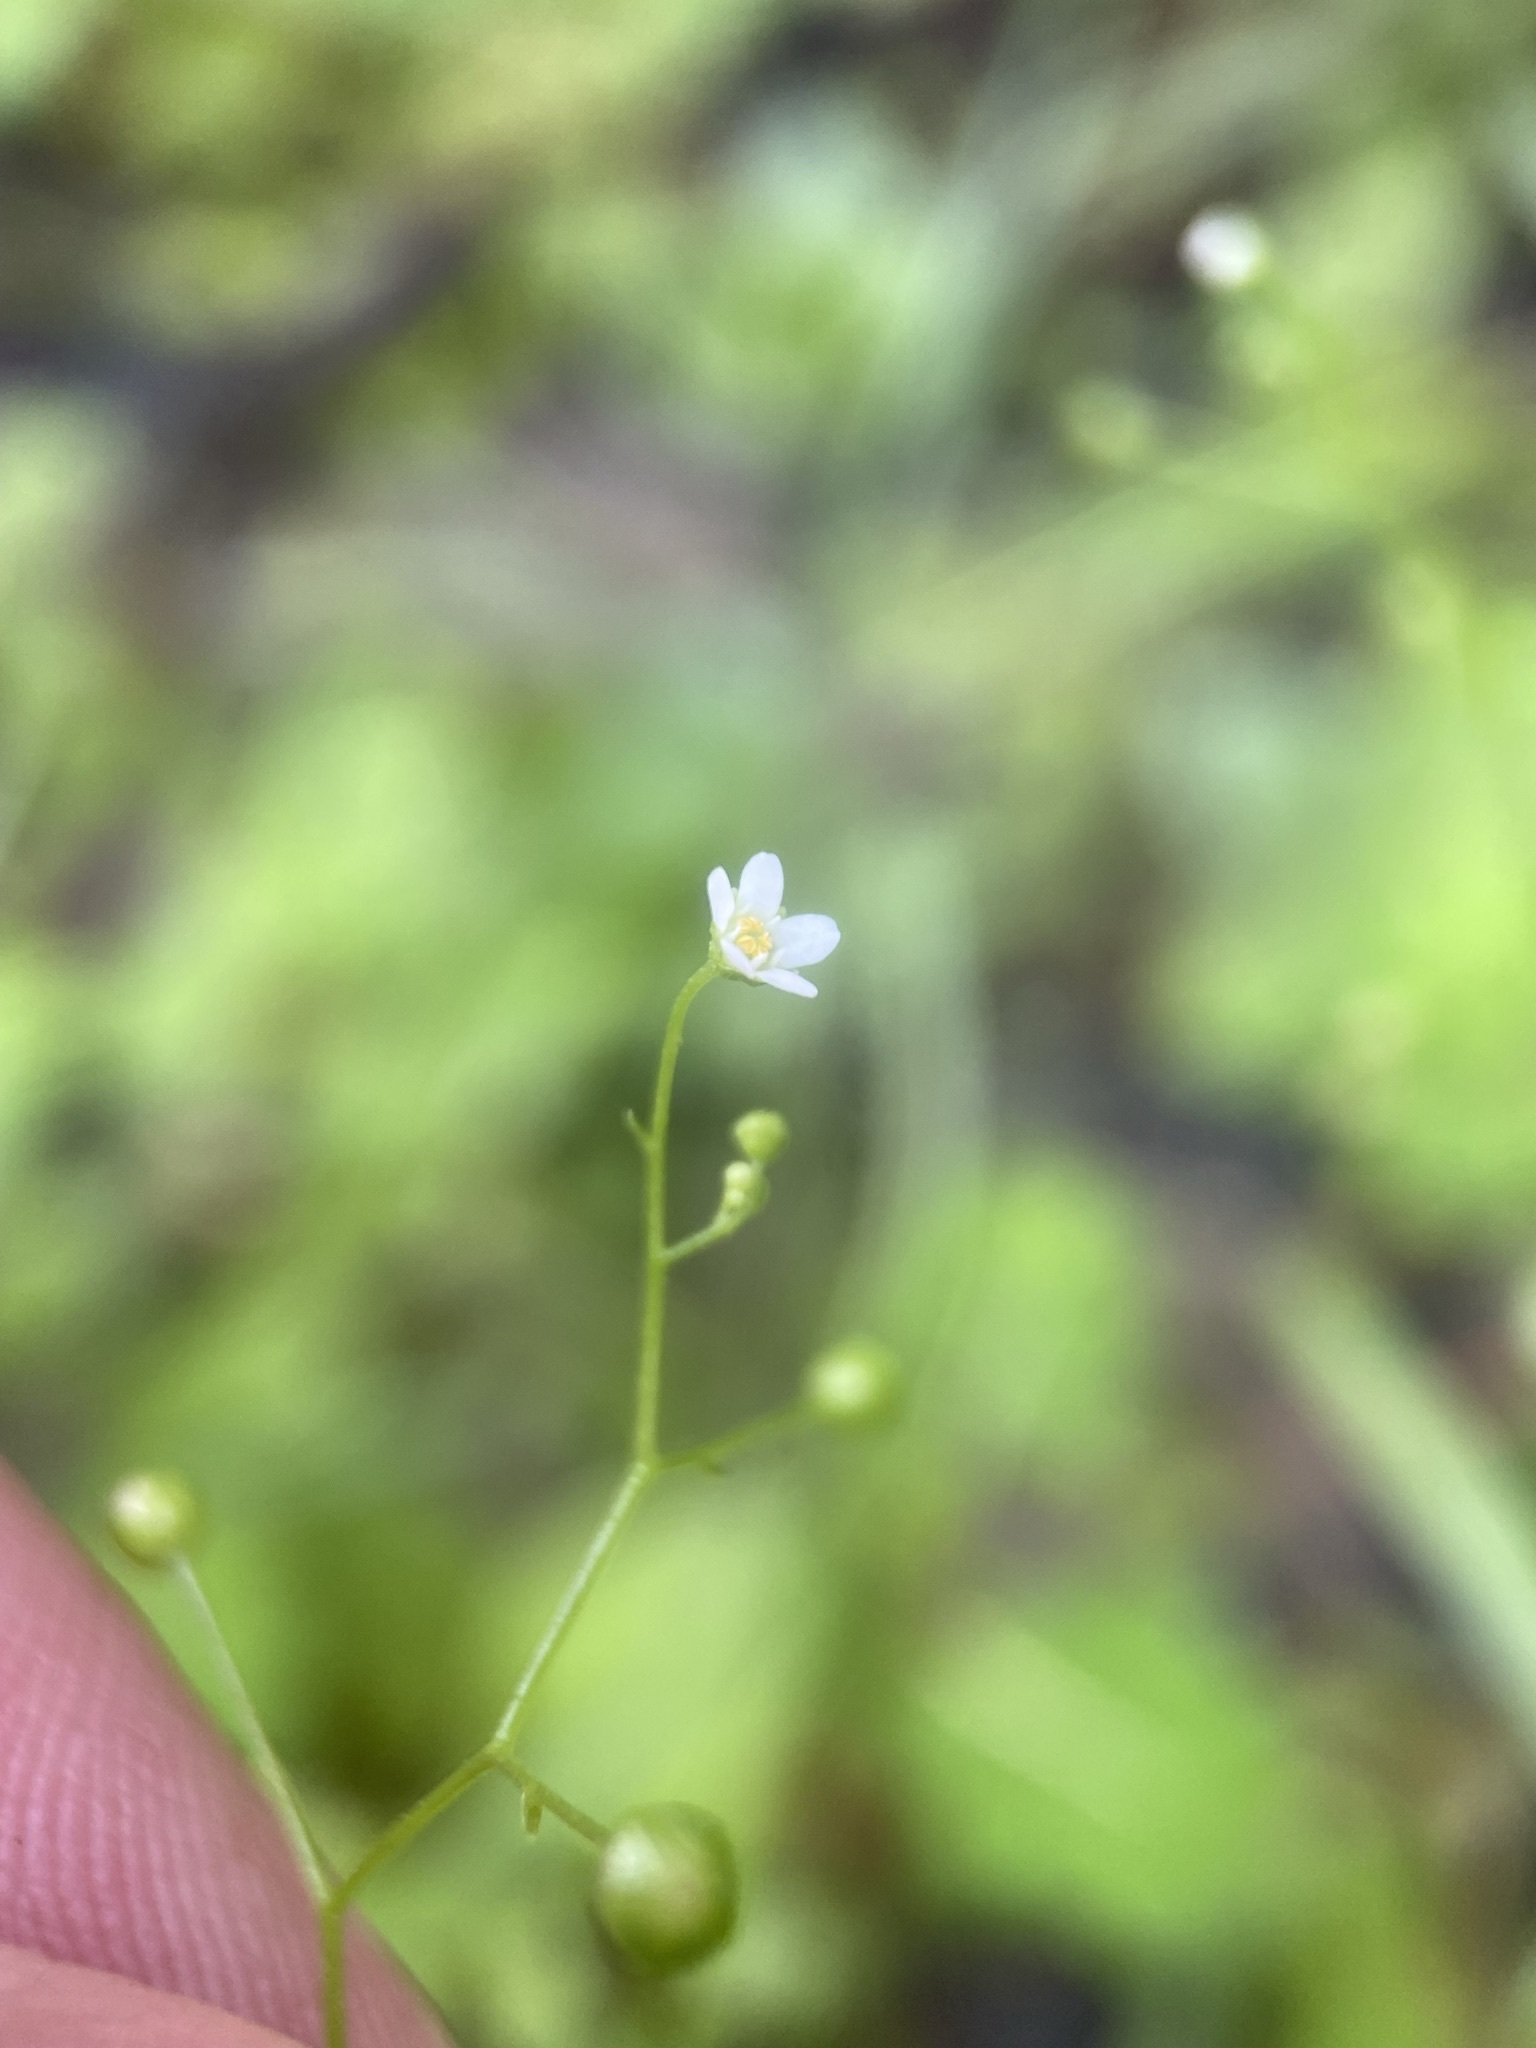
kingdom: Plantae
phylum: Tracheophyta
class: Magnoliopsida
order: Ericales
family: Primulaceae
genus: Samolus
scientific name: Samolus parviflorus
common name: False water pimpernel
